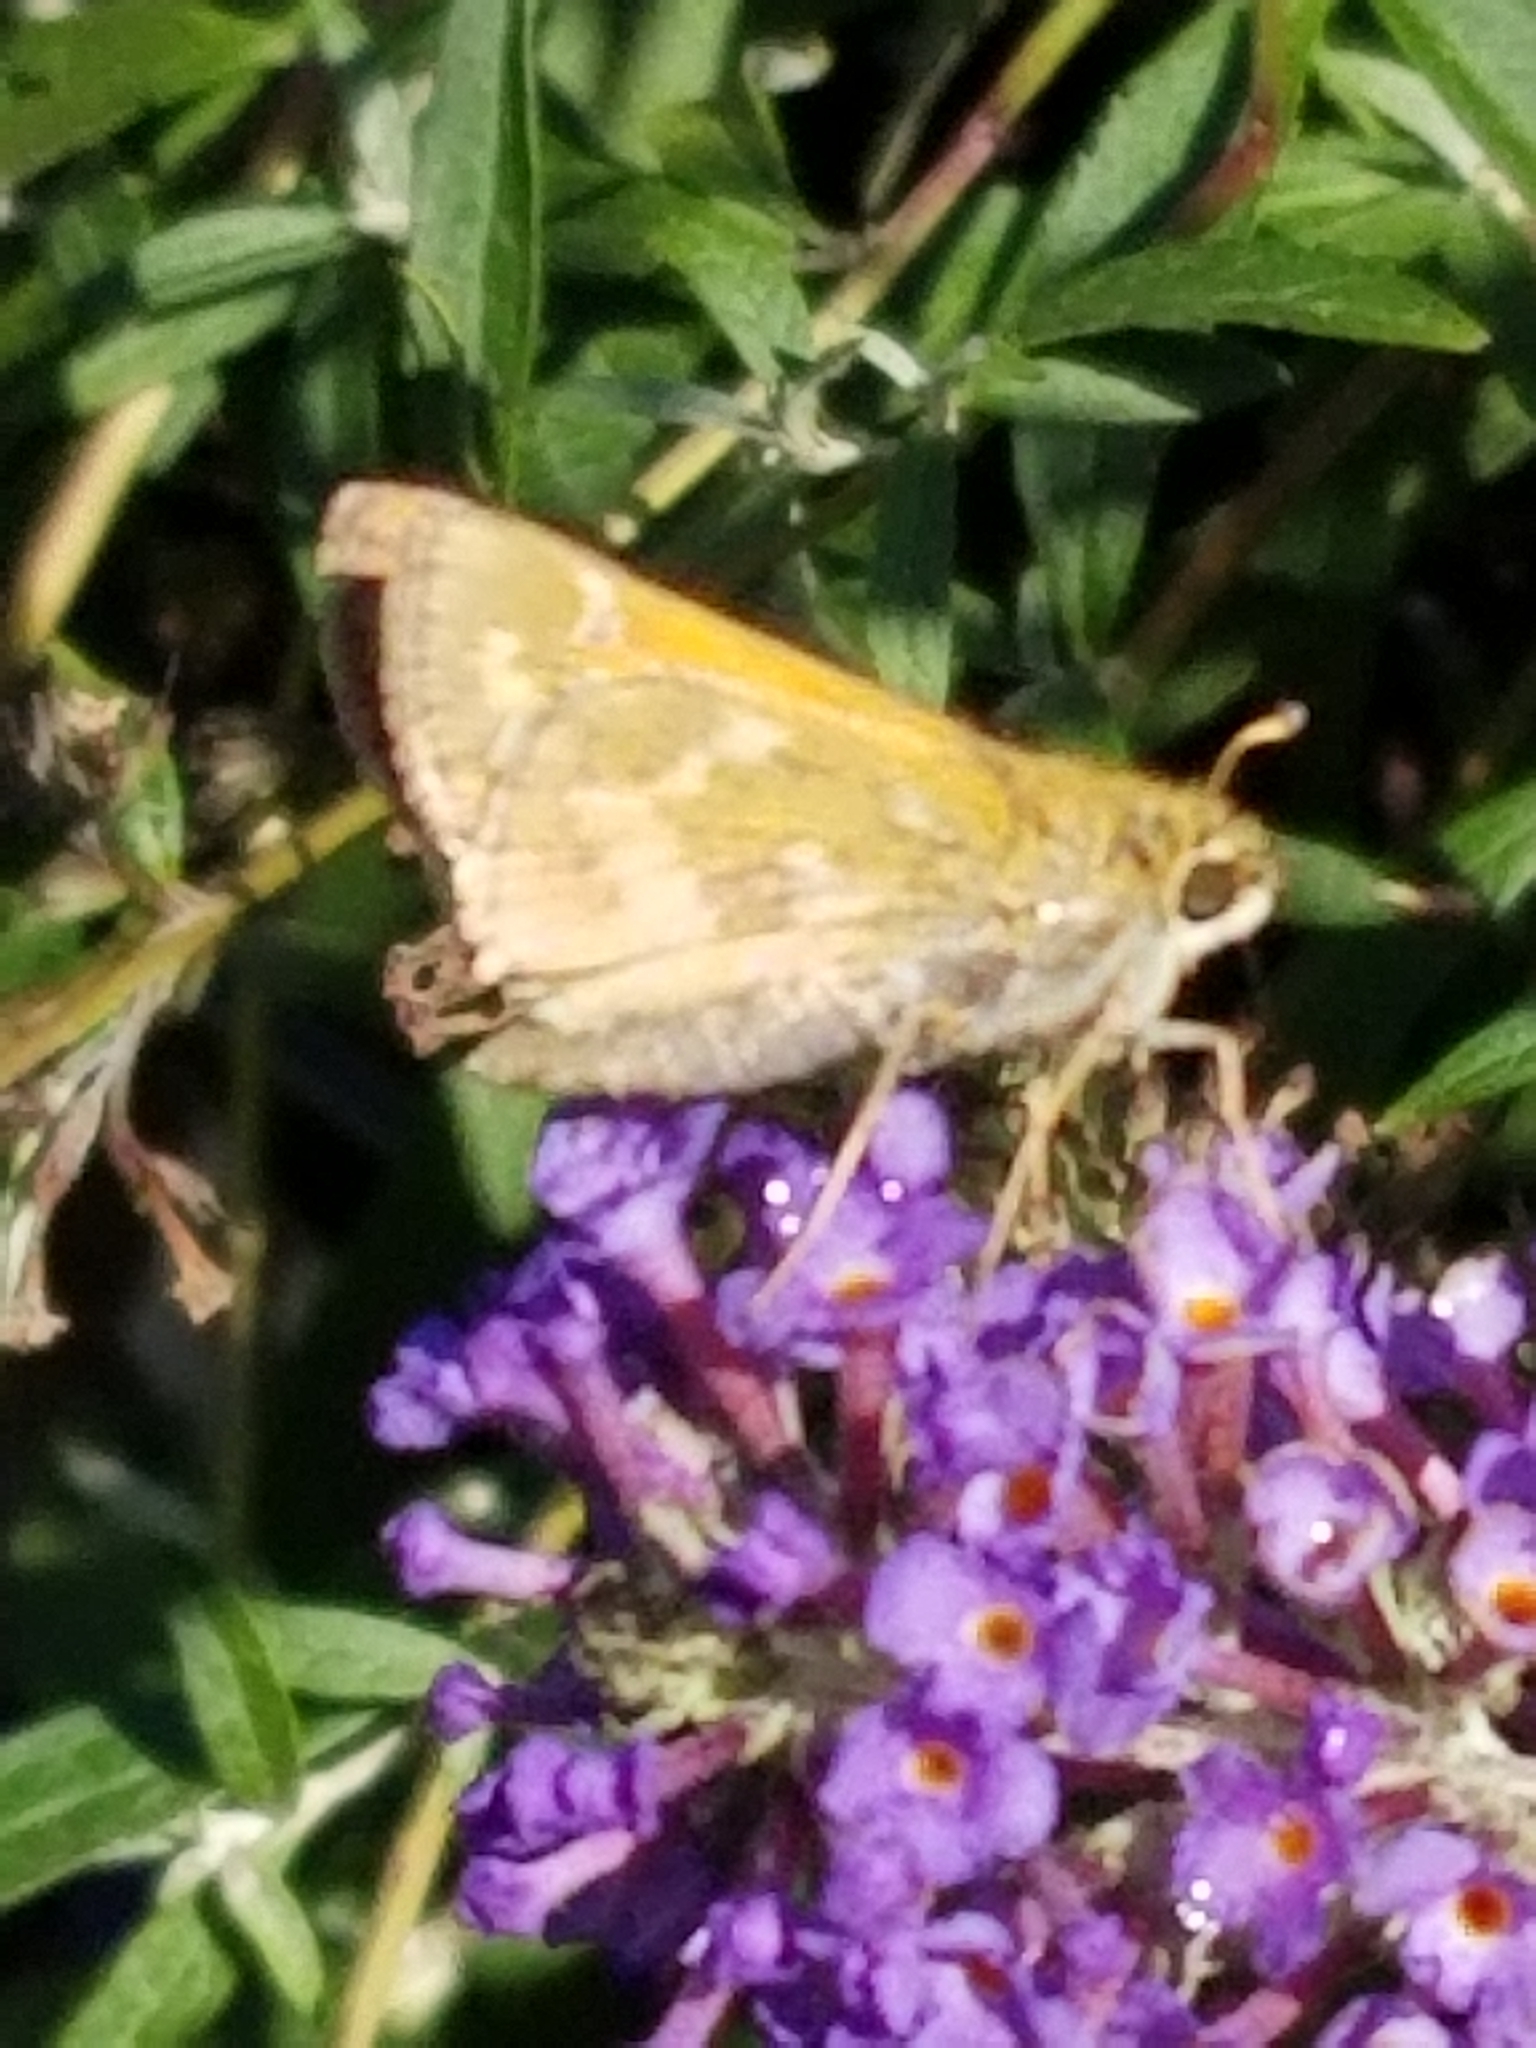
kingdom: Animalia
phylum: Arthropoda
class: Insecta
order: Lepidoptera
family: Hesperiidae
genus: Atalopedes
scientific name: Atalopedes
